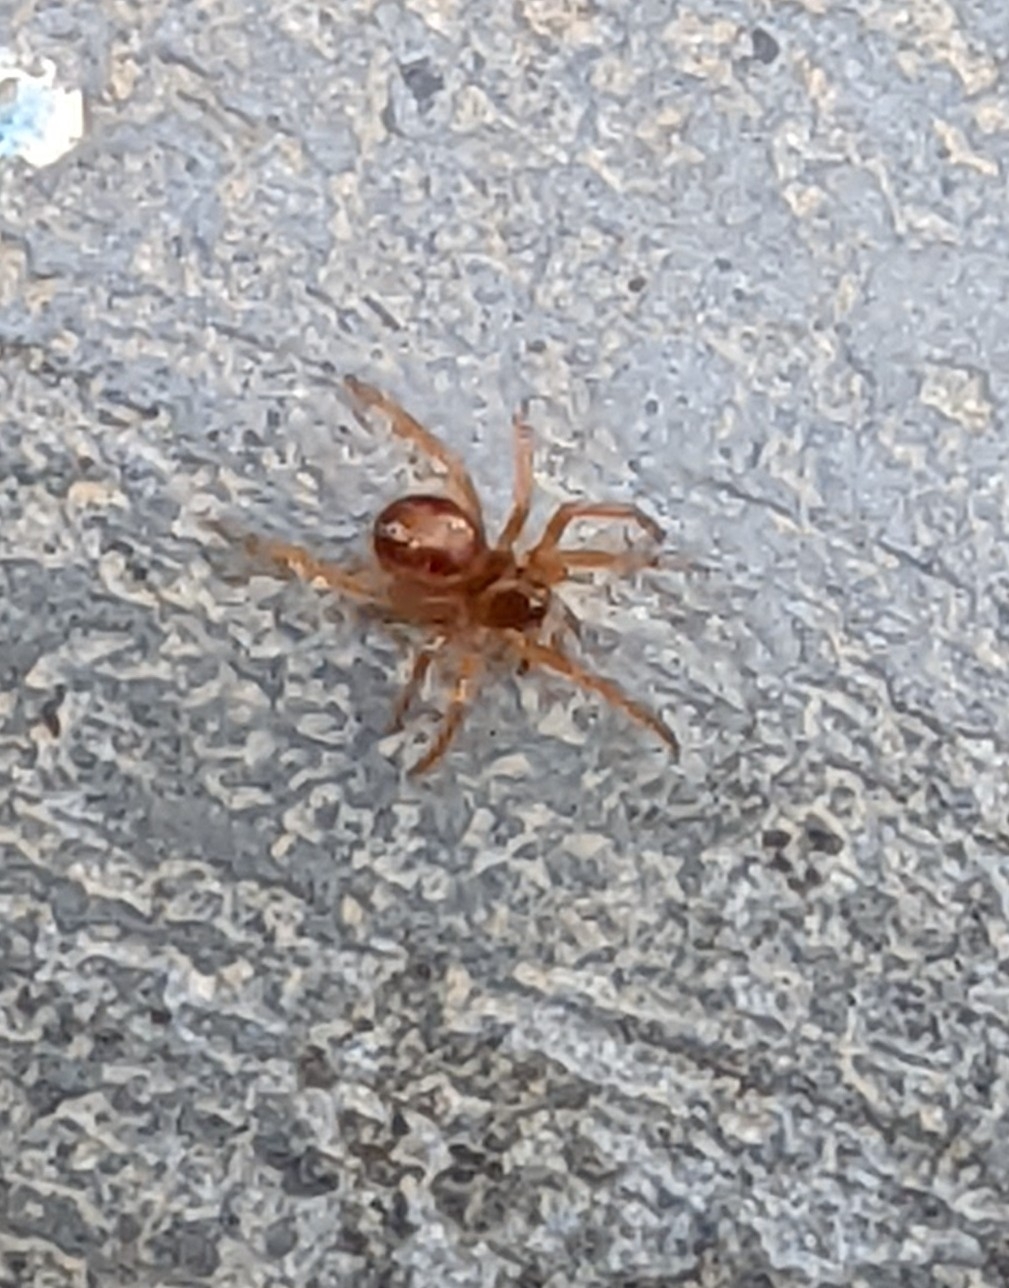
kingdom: Animalia
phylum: Arthropoda
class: Arachnida
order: Araneae
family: Theridiidae
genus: Steatoda
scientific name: Steatoda nobilis
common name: Cobweb weaver
